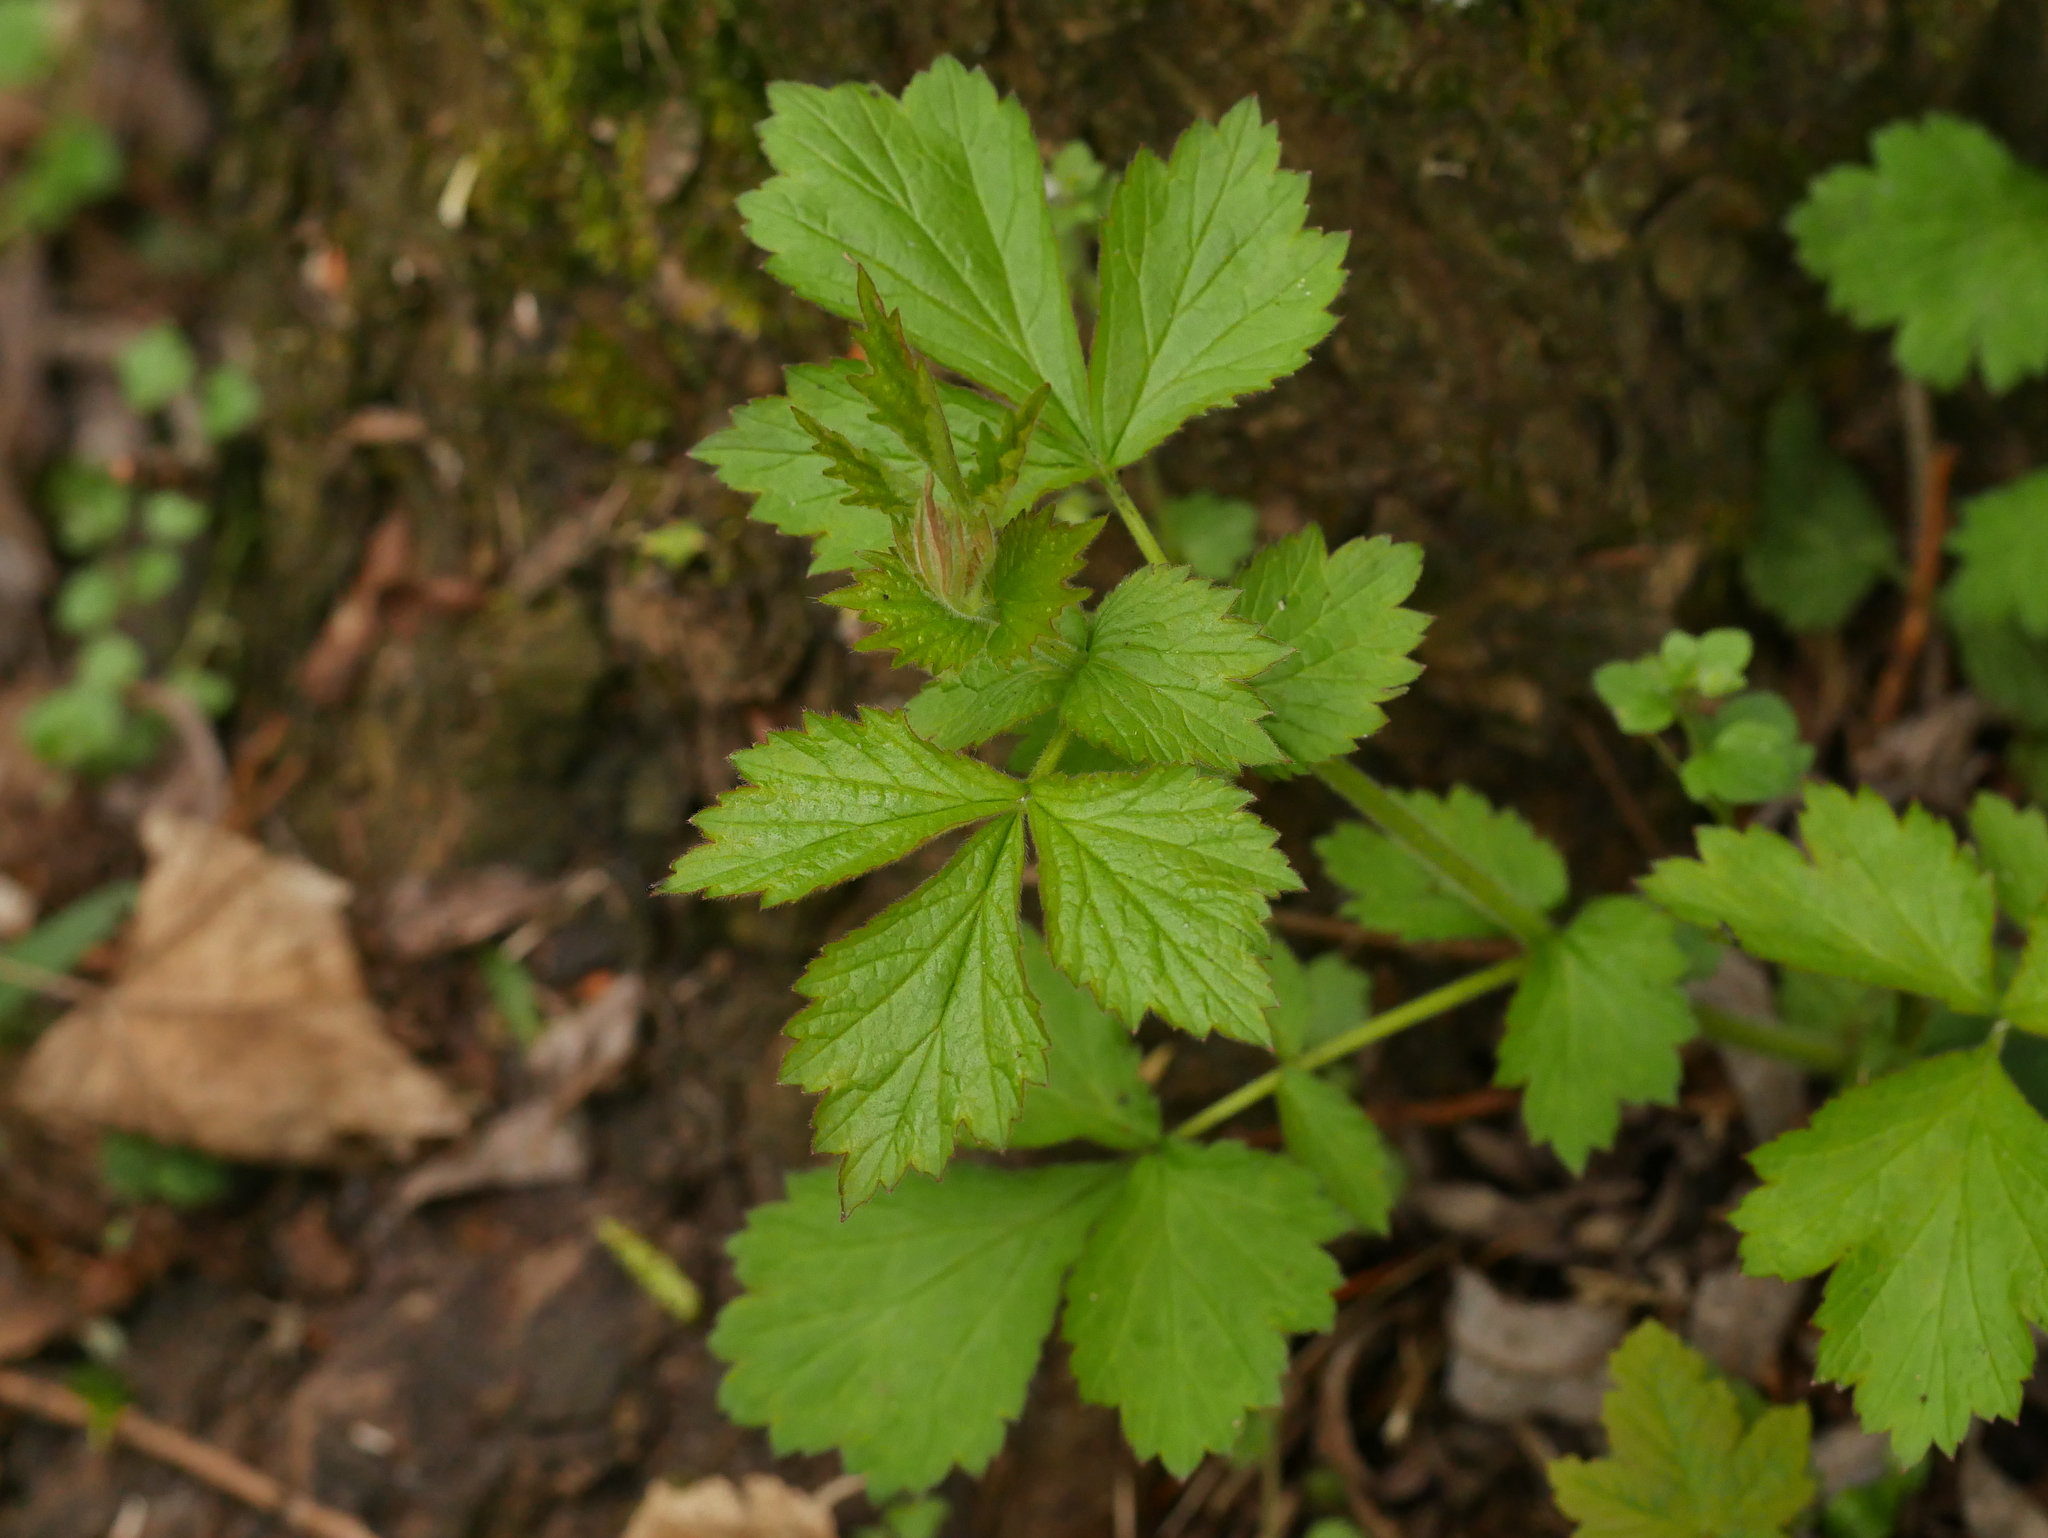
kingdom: Plantae
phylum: Tracheophyta
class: Magnoliopsida
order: Rosales
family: Rosaceae
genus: Geum
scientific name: Geum urbanum
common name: Wood avens
